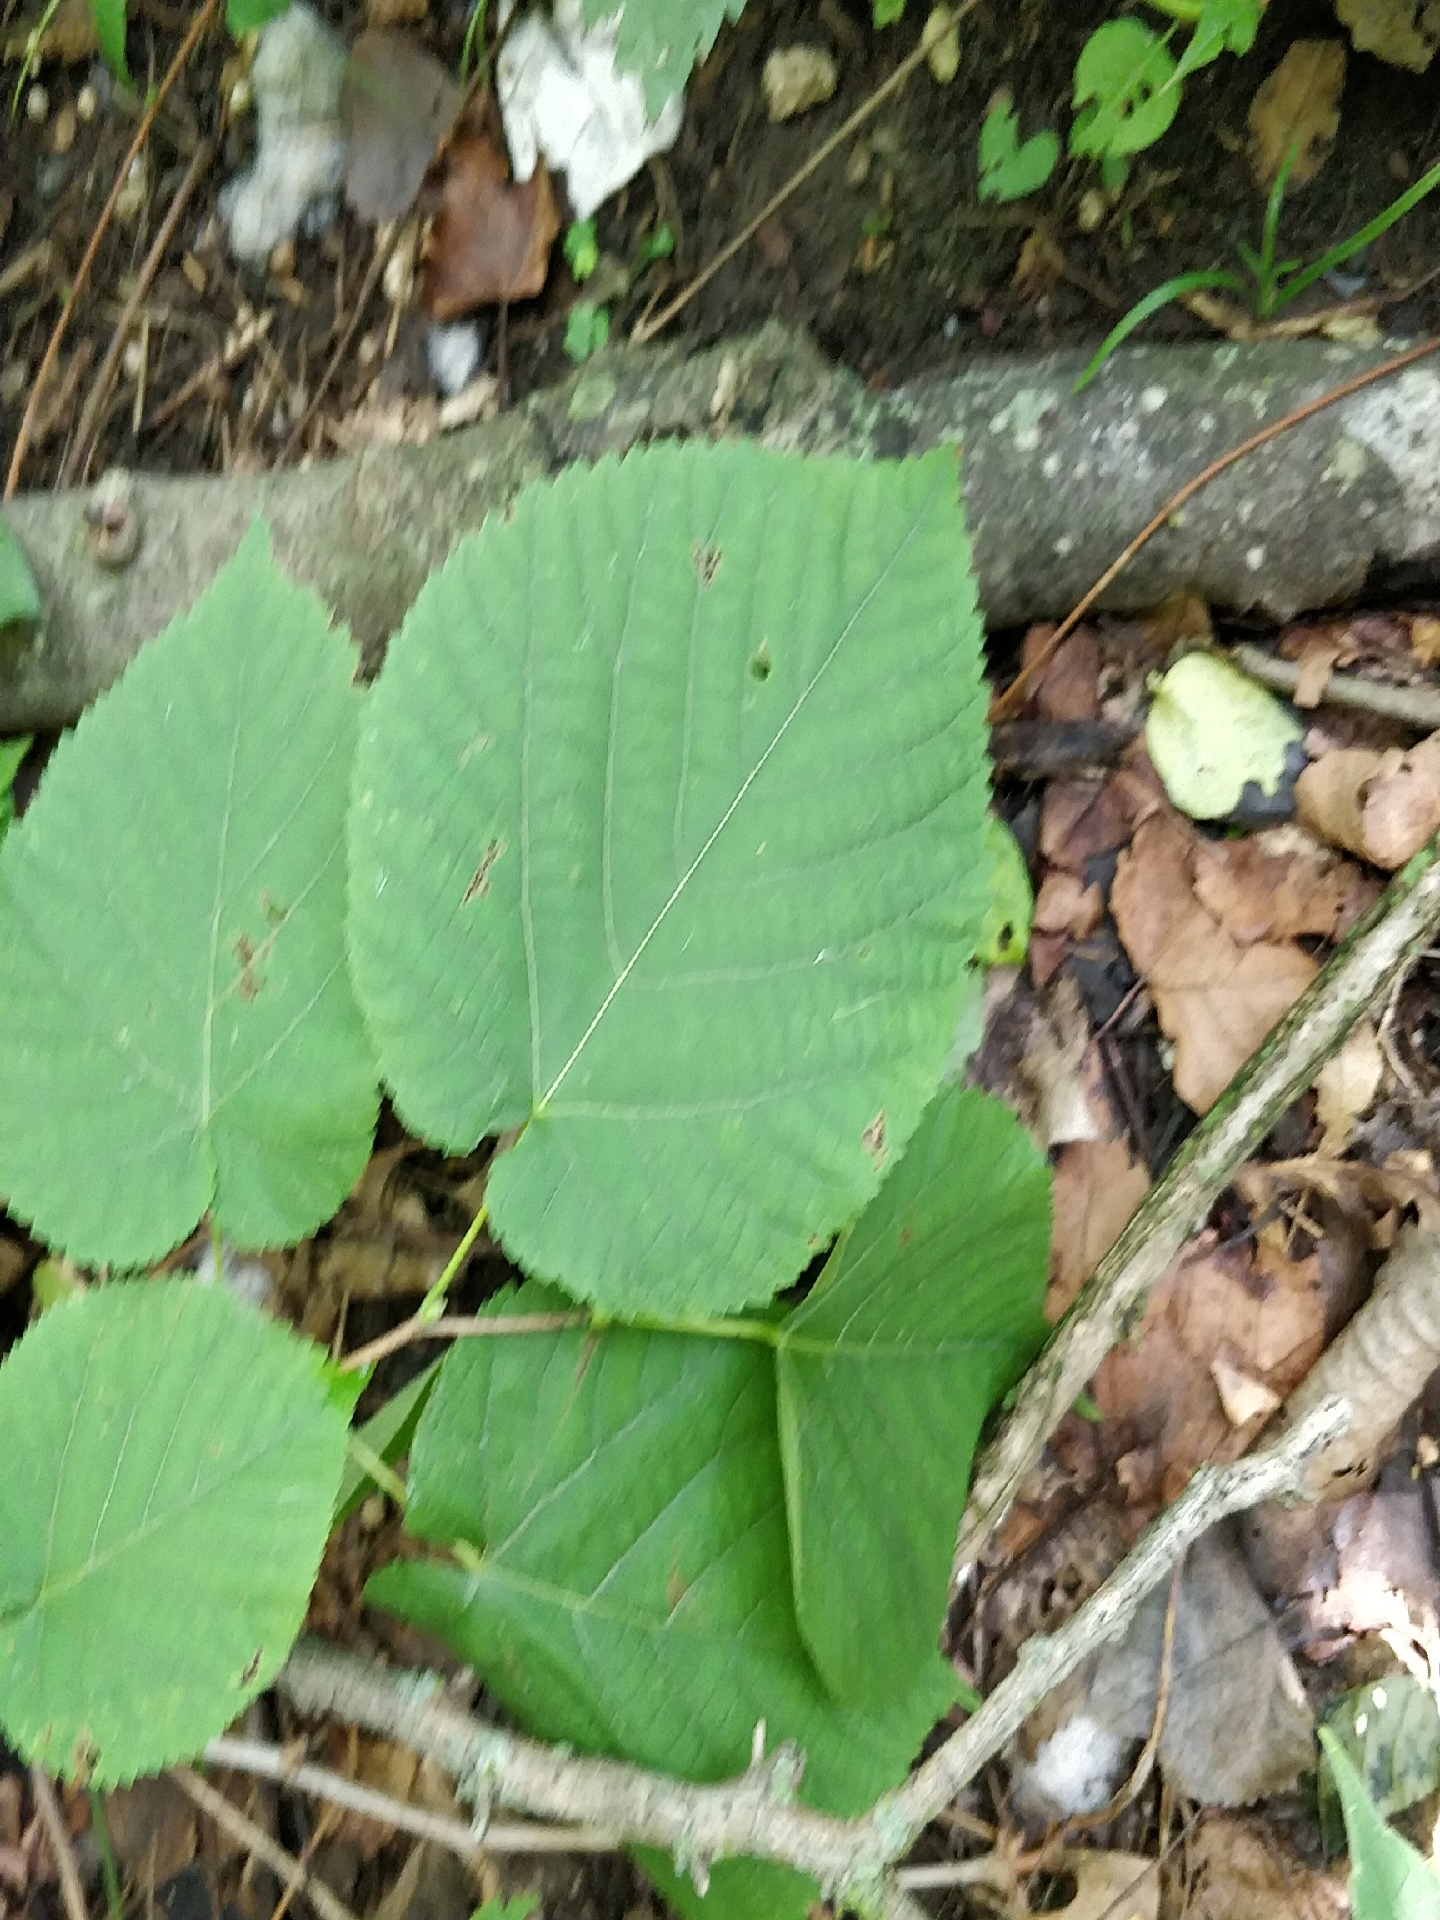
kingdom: Plantae
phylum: Tracheophyta
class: Magnoliopsida
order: Malvales
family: Malvaceae
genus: Tilia
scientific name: Tilia americana
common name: Basswood
